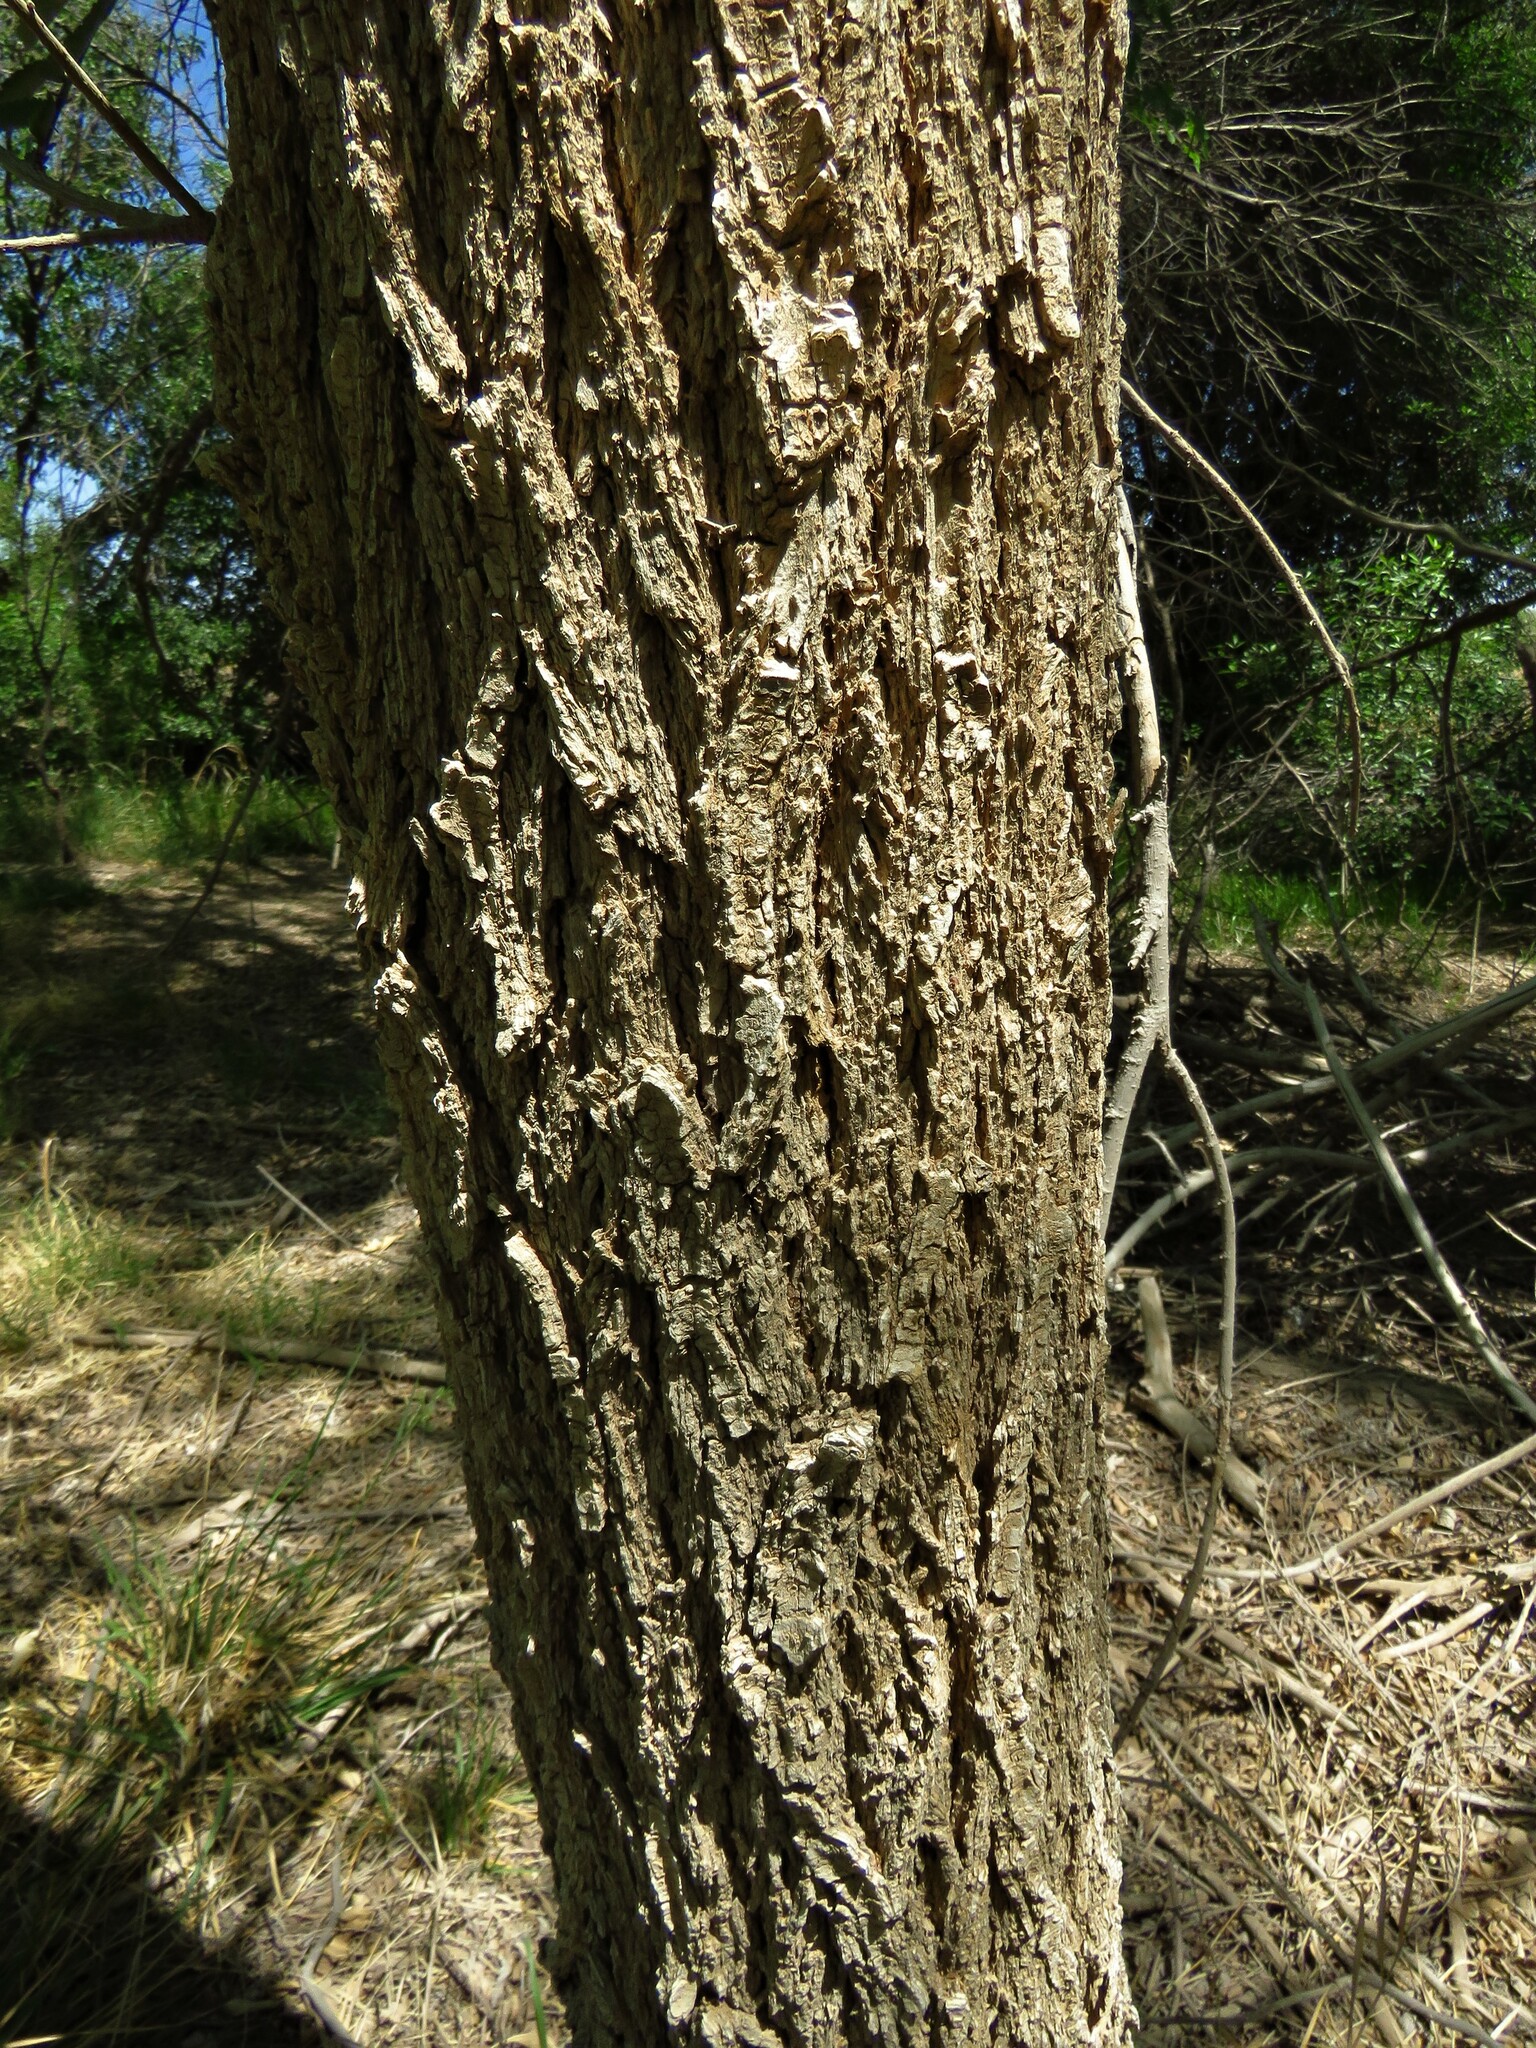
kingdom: Plantae
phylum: Tracheophyta
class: Magnoliopsida
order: Rosales
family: Ulmaceae
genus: Ulmus
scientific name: Ulmus pumila
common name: Siberian elm
